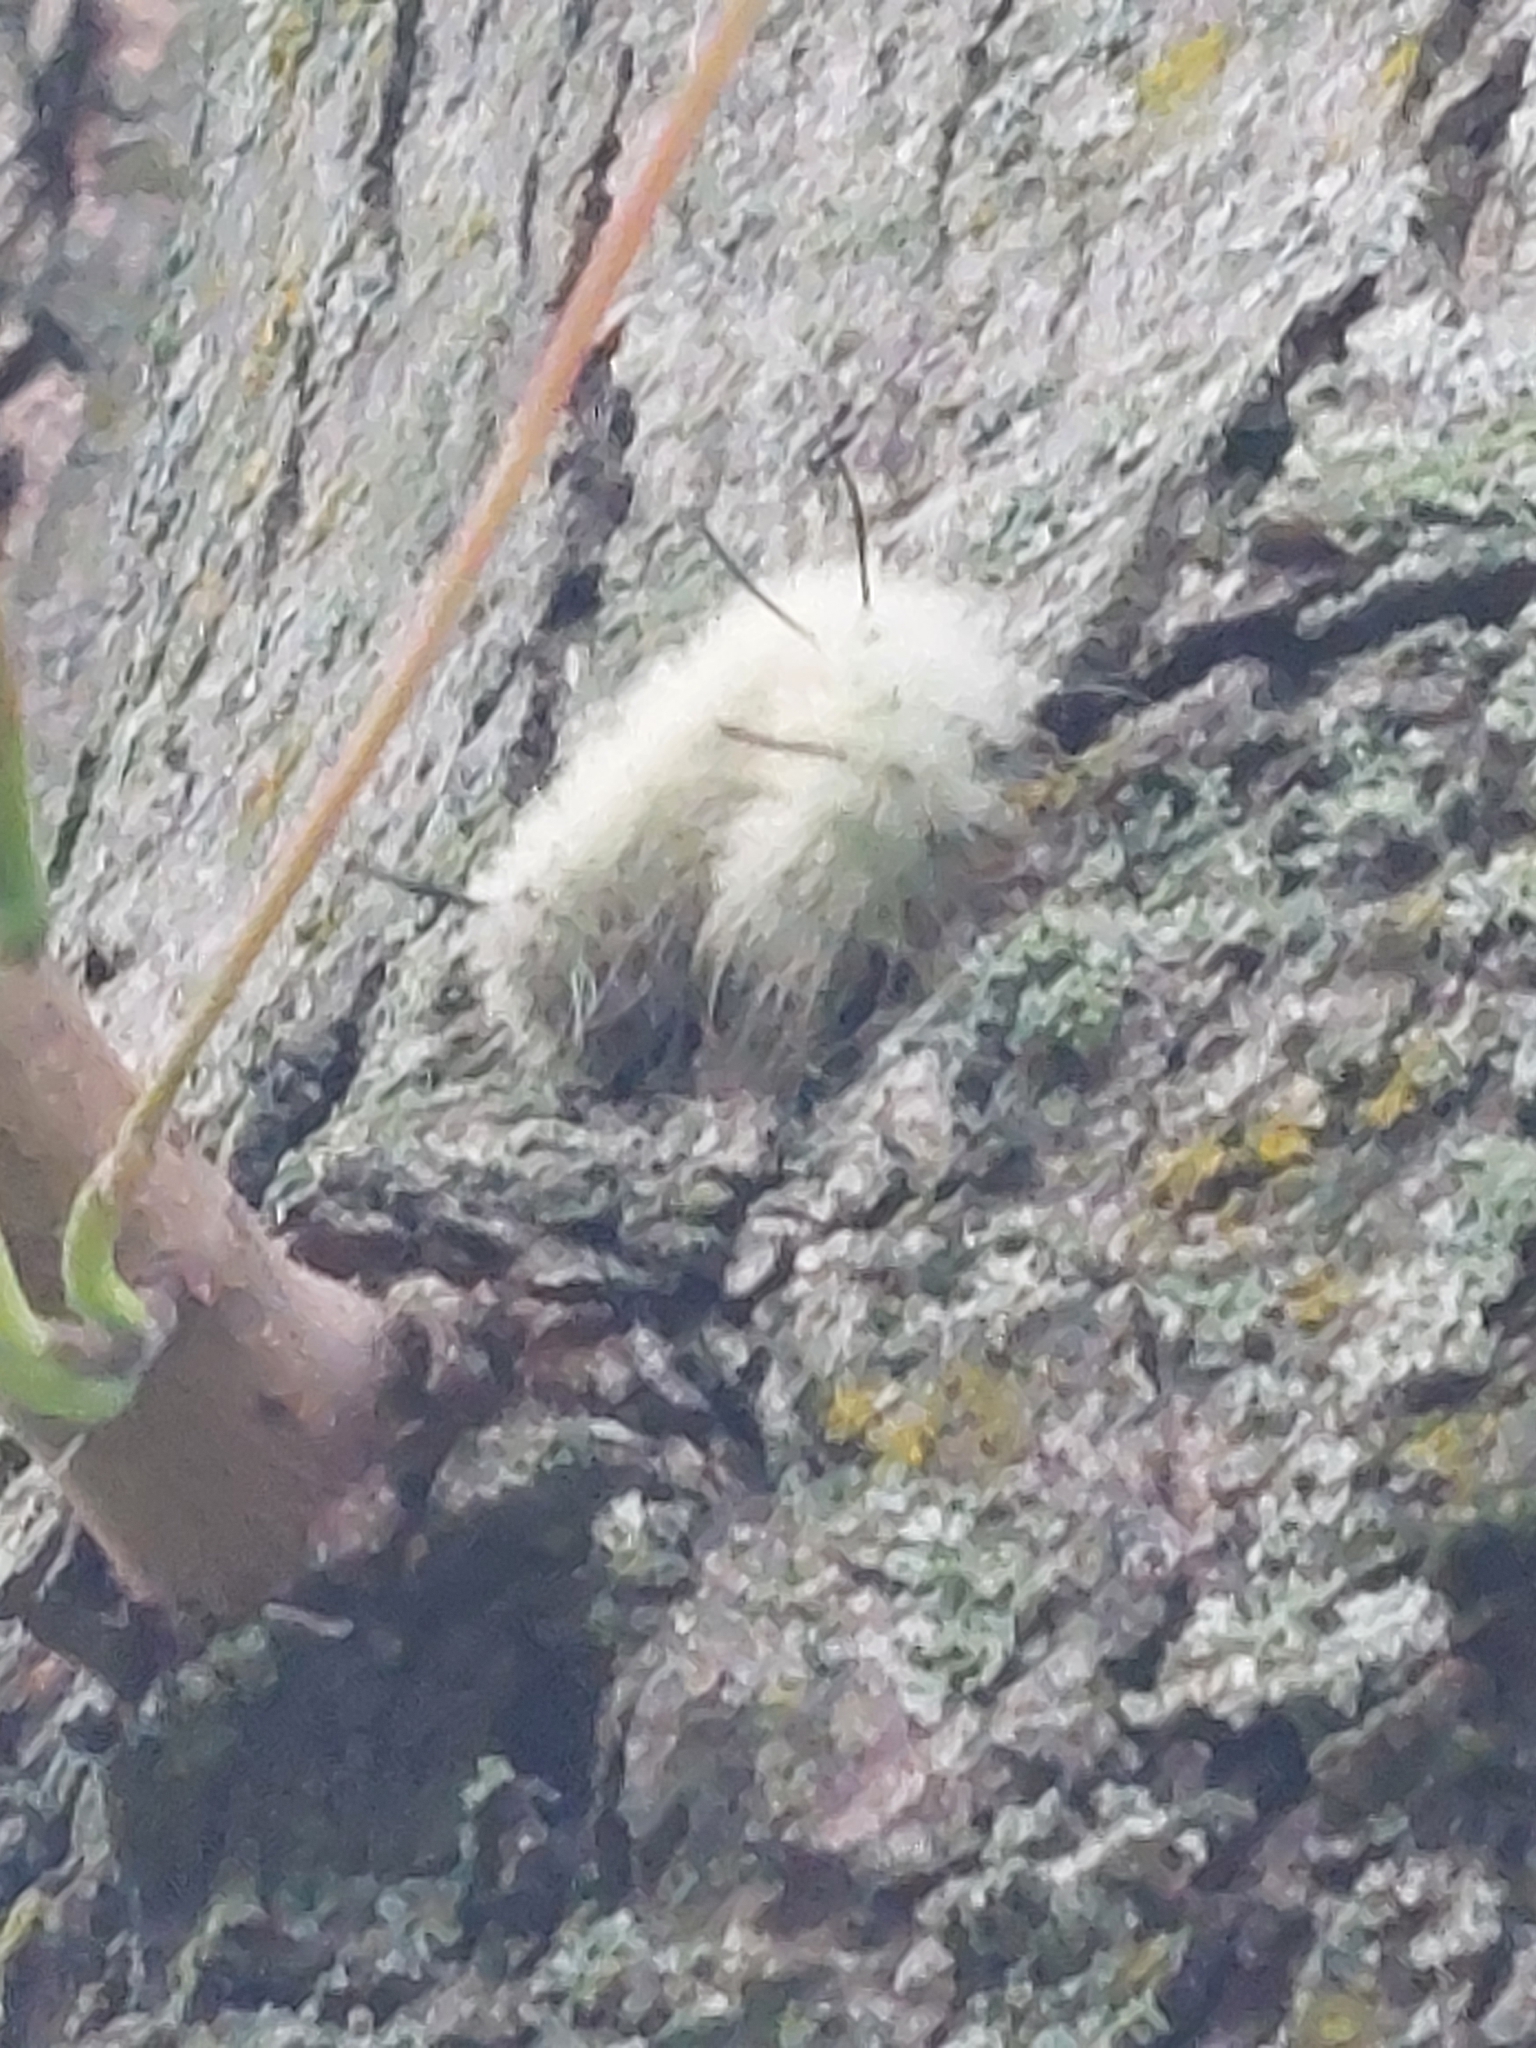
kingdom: Animalia
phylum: Arthropoda
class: Insecta
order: Lepidoptera
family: Noctuidae
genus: Acronicta
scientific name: Acronicta americana
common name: American dagger
